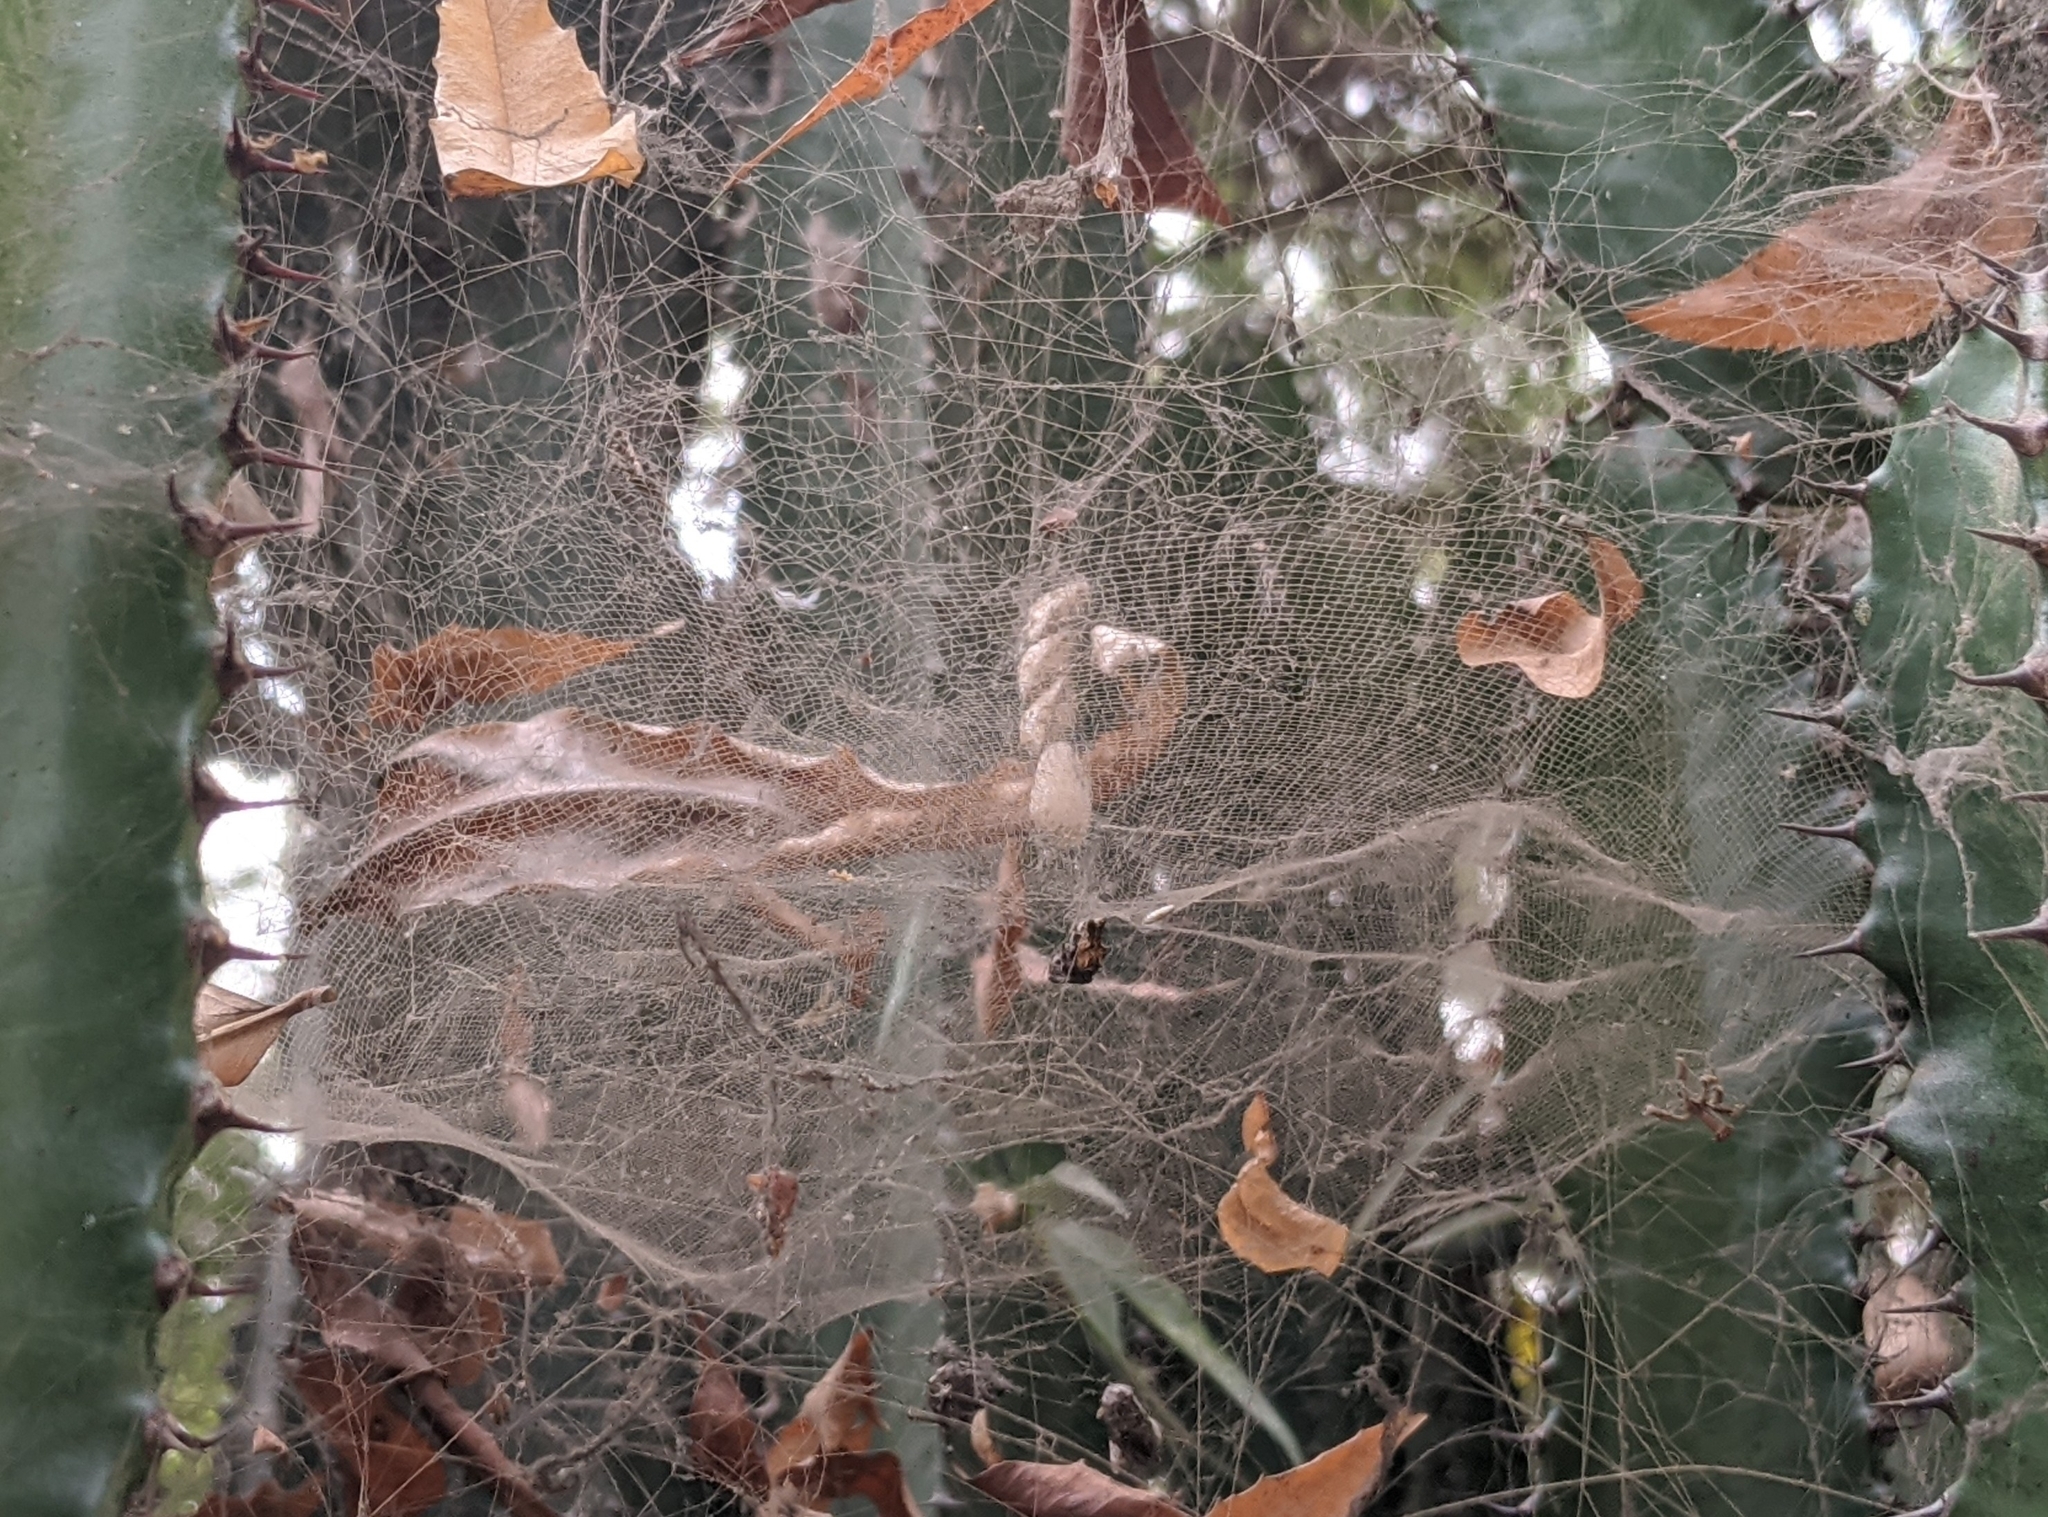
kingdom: Animalia
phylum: Arthropoda
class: Arachnida
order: Araneae
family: Araneidae
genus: Cyrtophora
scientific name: Cyrtophora citricola
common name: Orb weavers
